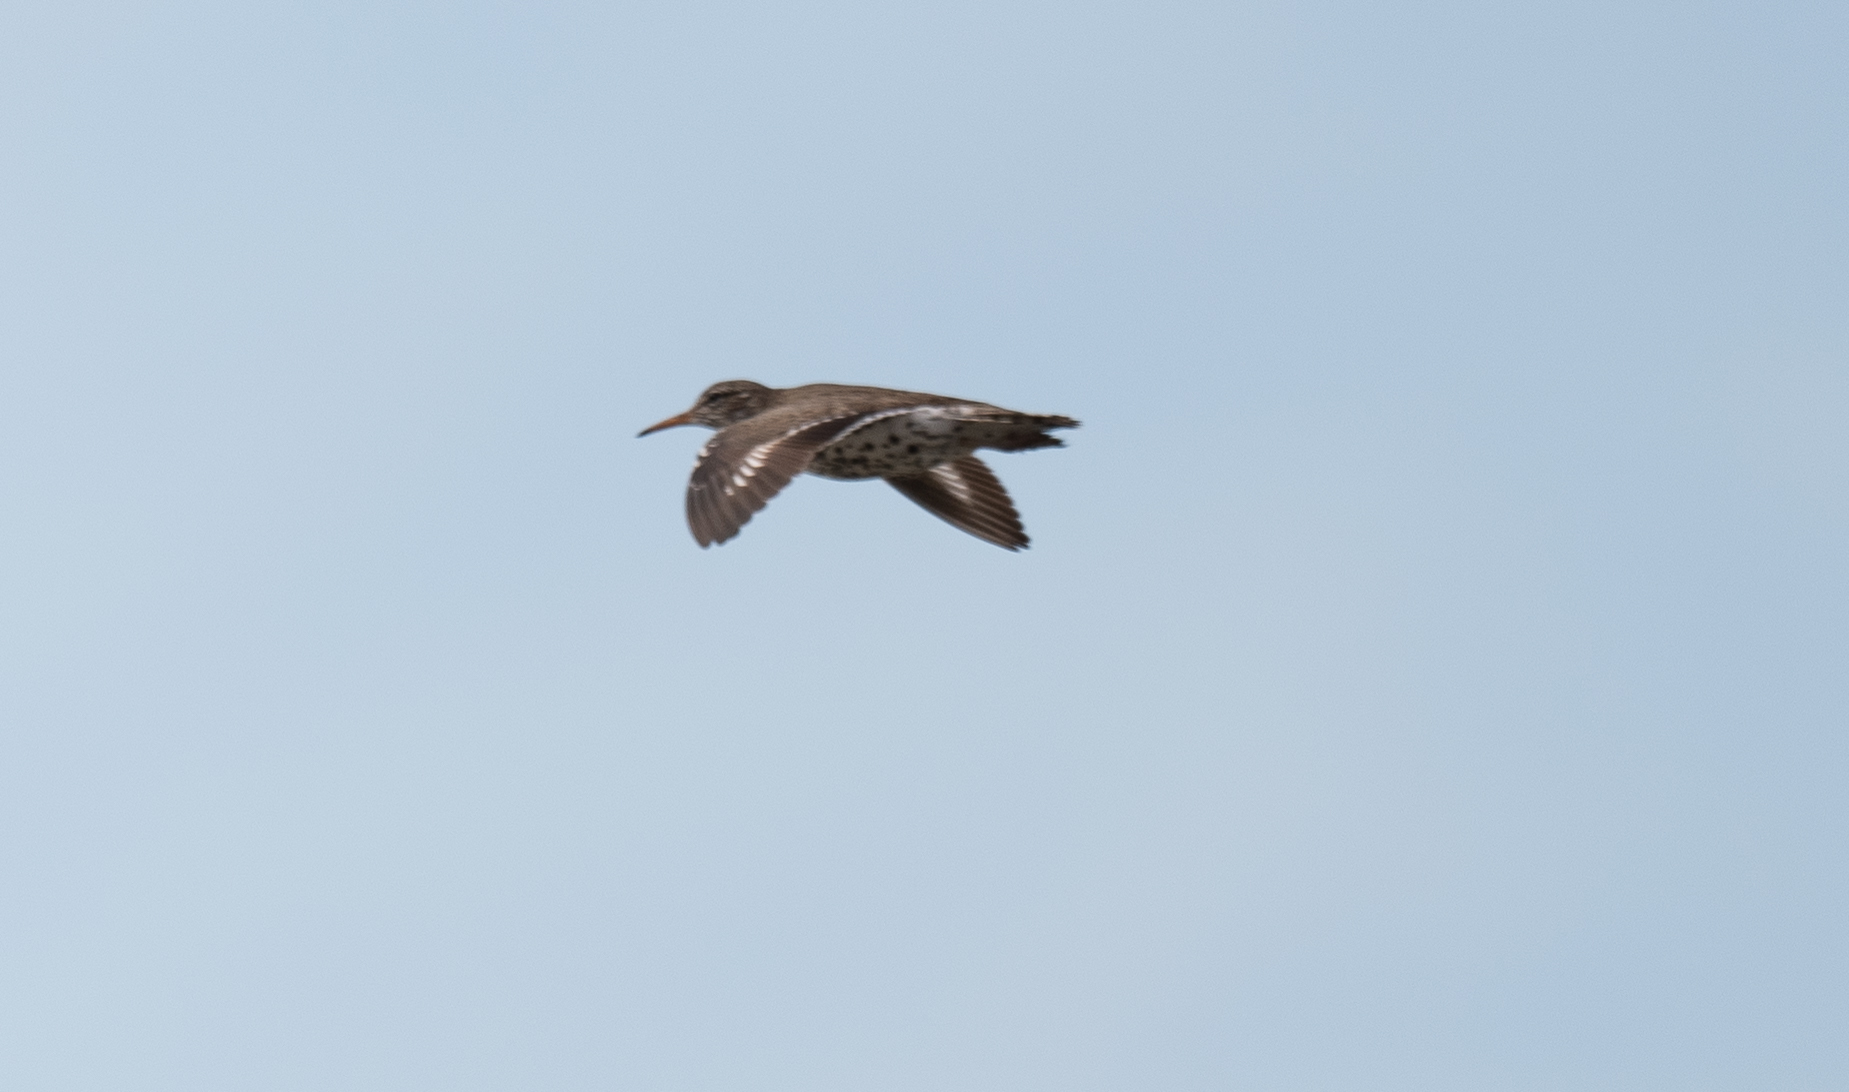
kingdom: Animalia
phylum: Chordata
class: Aves
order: Charadriiformes
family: Scolopacidae
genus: Actitis
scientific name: Actitis macularius
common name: Spotted sandpiper
